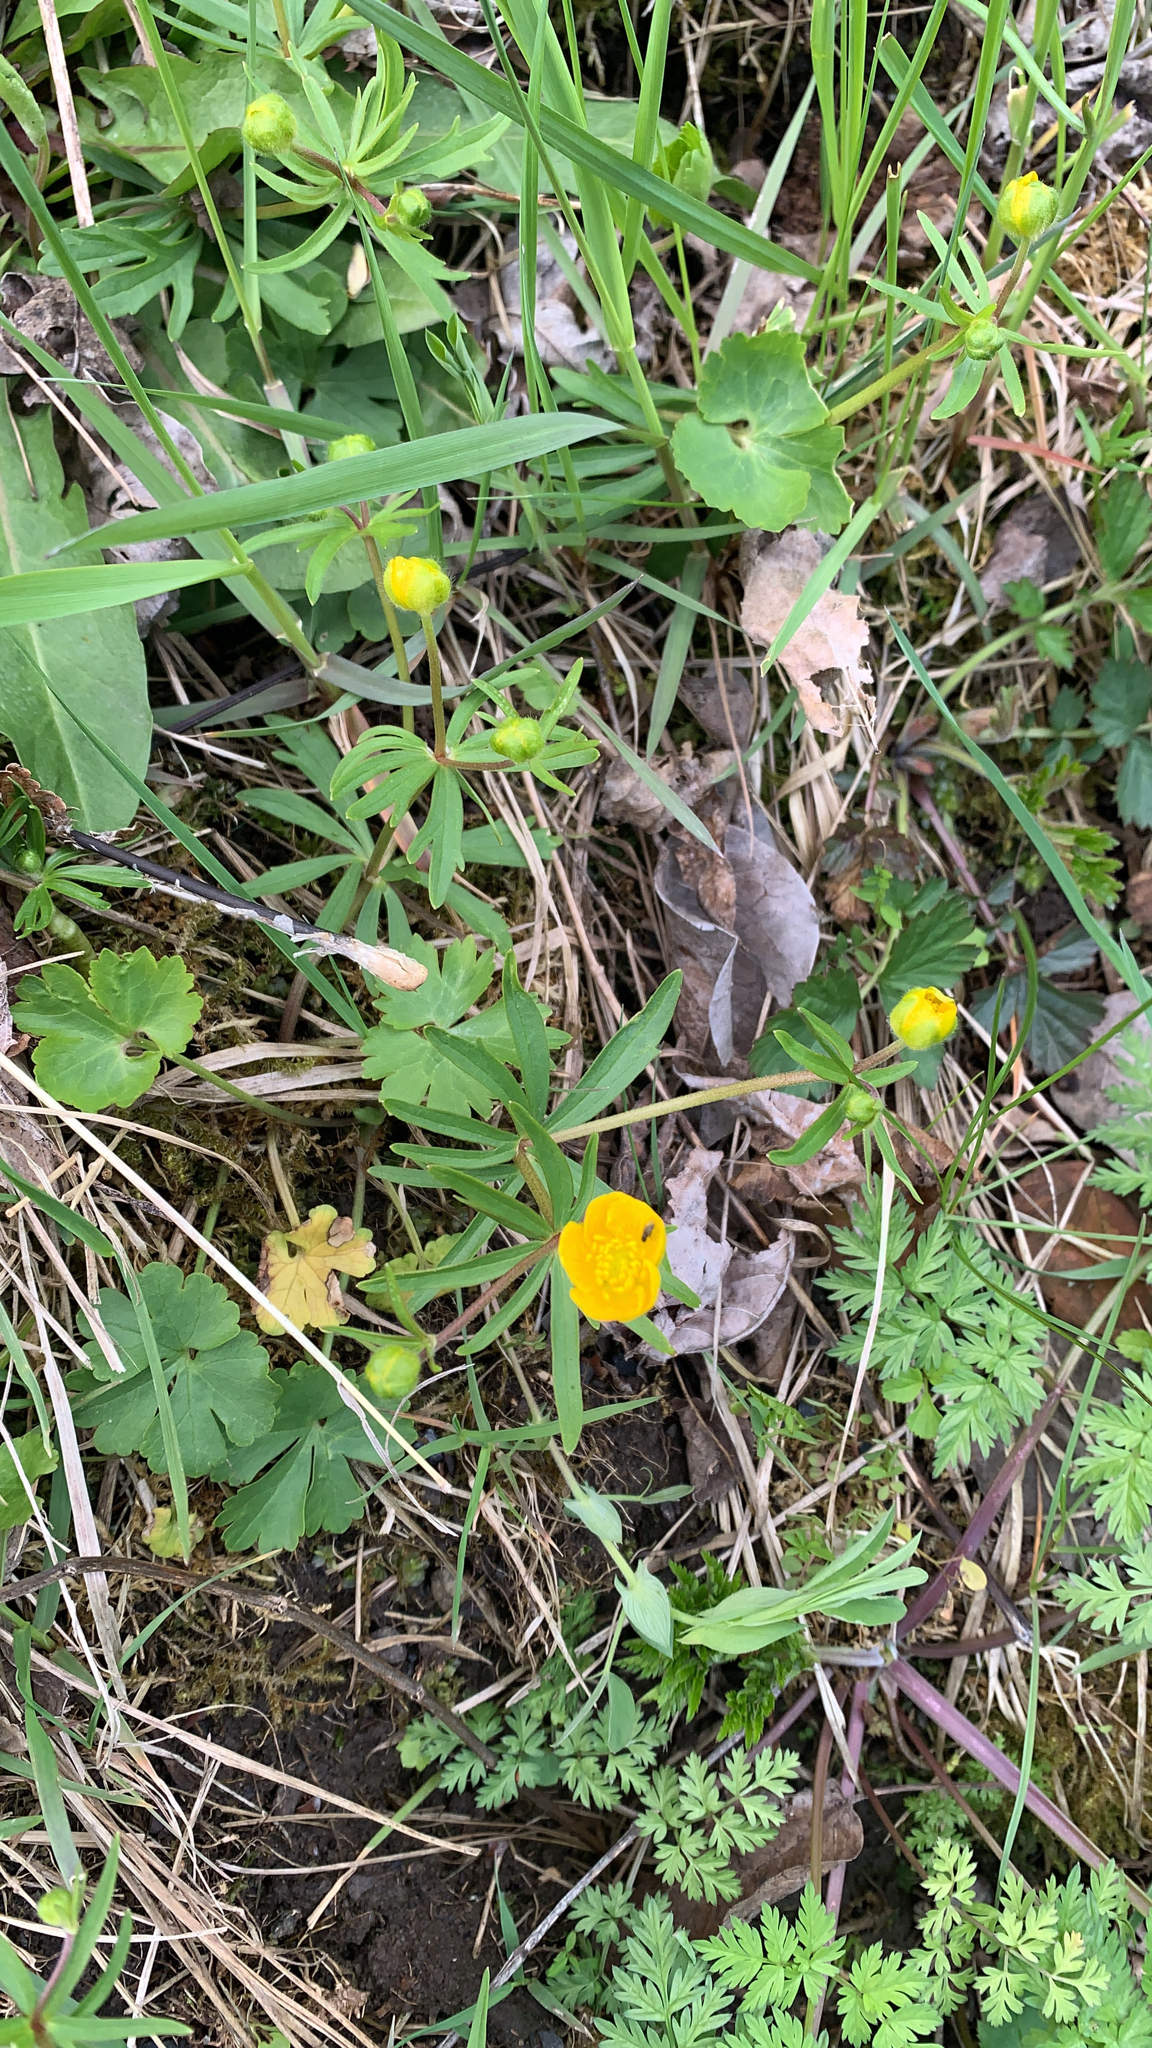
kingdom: Plantae
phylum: Tracheophyta
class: Magnoliopsida
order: Ranunculales
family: Ranunculaceae
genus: Ranunculus
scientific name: Ranunculus auricomus
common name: Goldilocks buttercup
